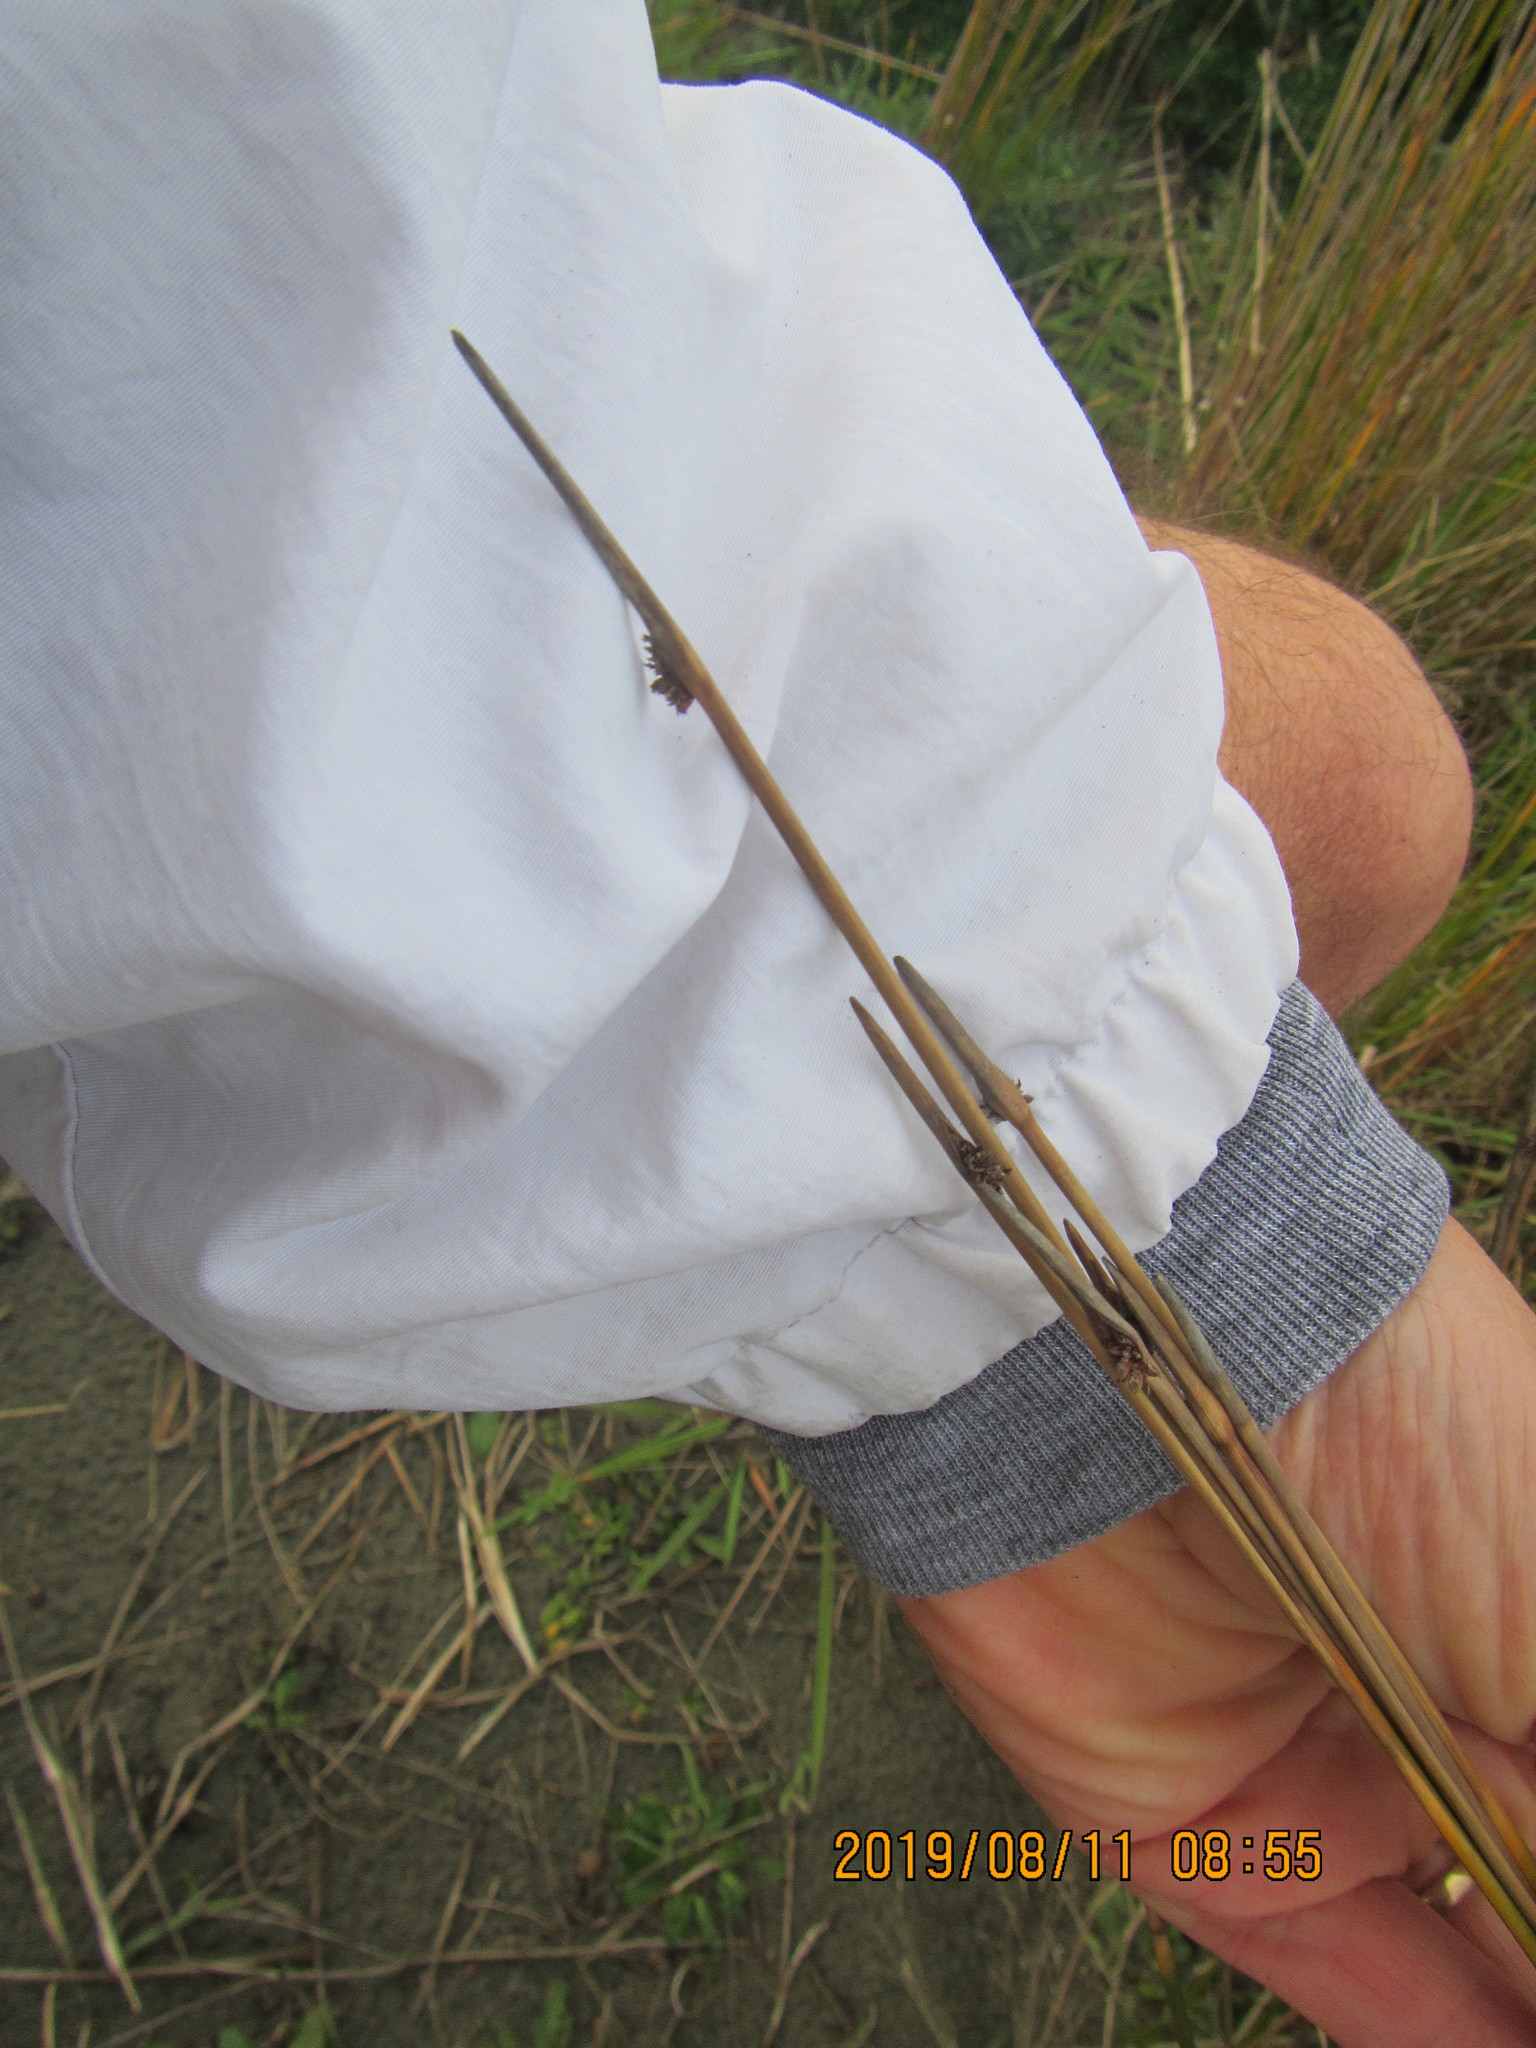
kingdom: Plantae
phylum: Tracheophyta
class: Liliopsida
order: Poales
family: Cyperaceae
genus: Ficinia
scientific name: Ficinia nodosa
